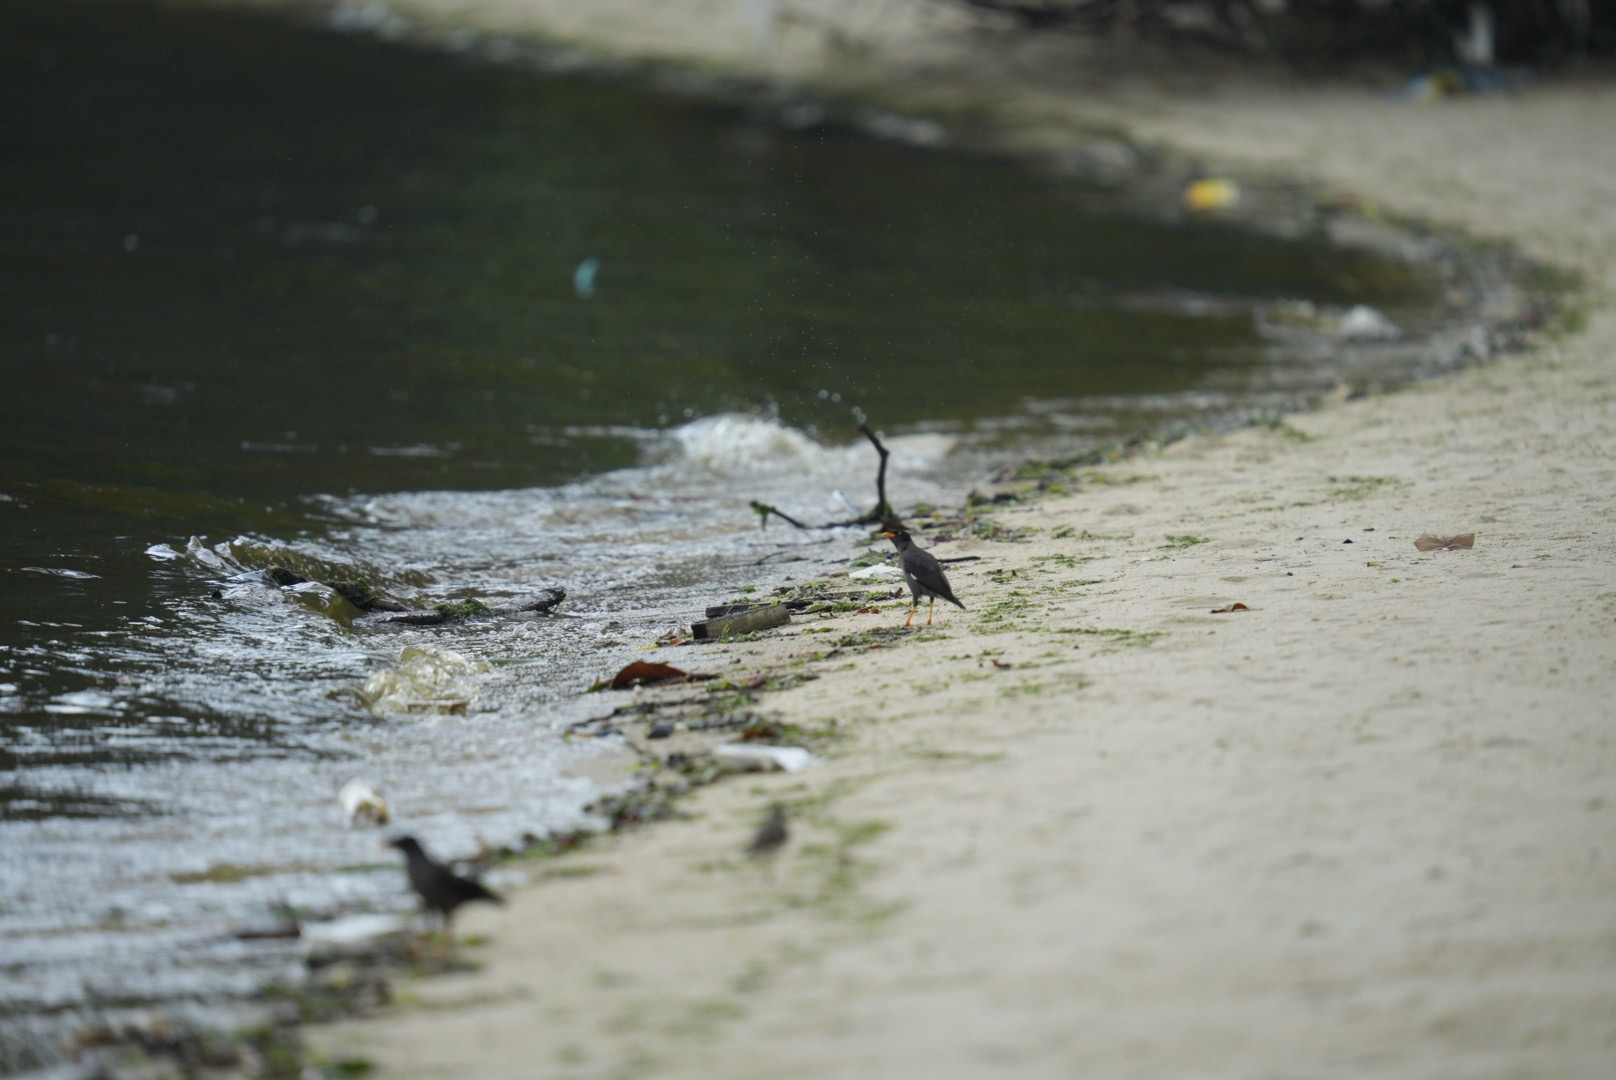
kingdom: Animalia
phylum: Chordata
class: Aves
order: Passeriformes
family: Sturnidae
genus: Acridotheres
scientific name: Acridotheres javanicus
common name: Javan myna
